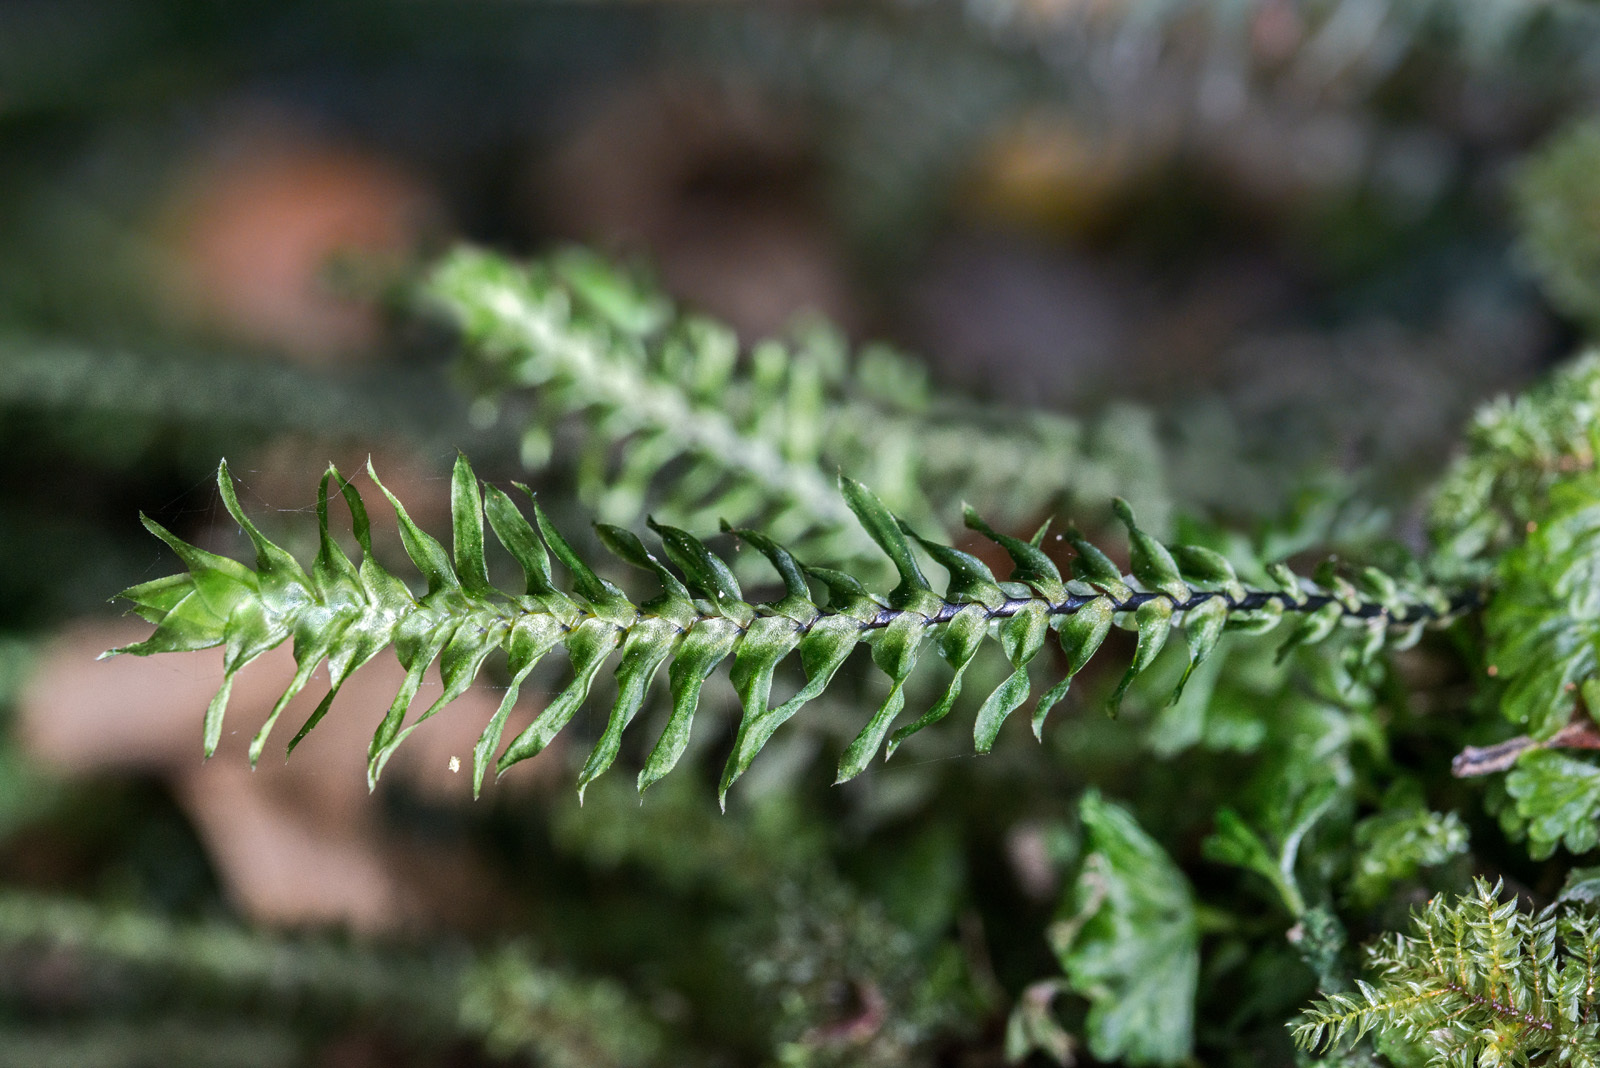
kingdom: Plantae
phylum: Bryophyta
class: Bryopsida
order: Hypopterygiales
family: Hypopterygiaceae
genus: Cyathophorum
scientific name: Cyathophorum bulbosum
